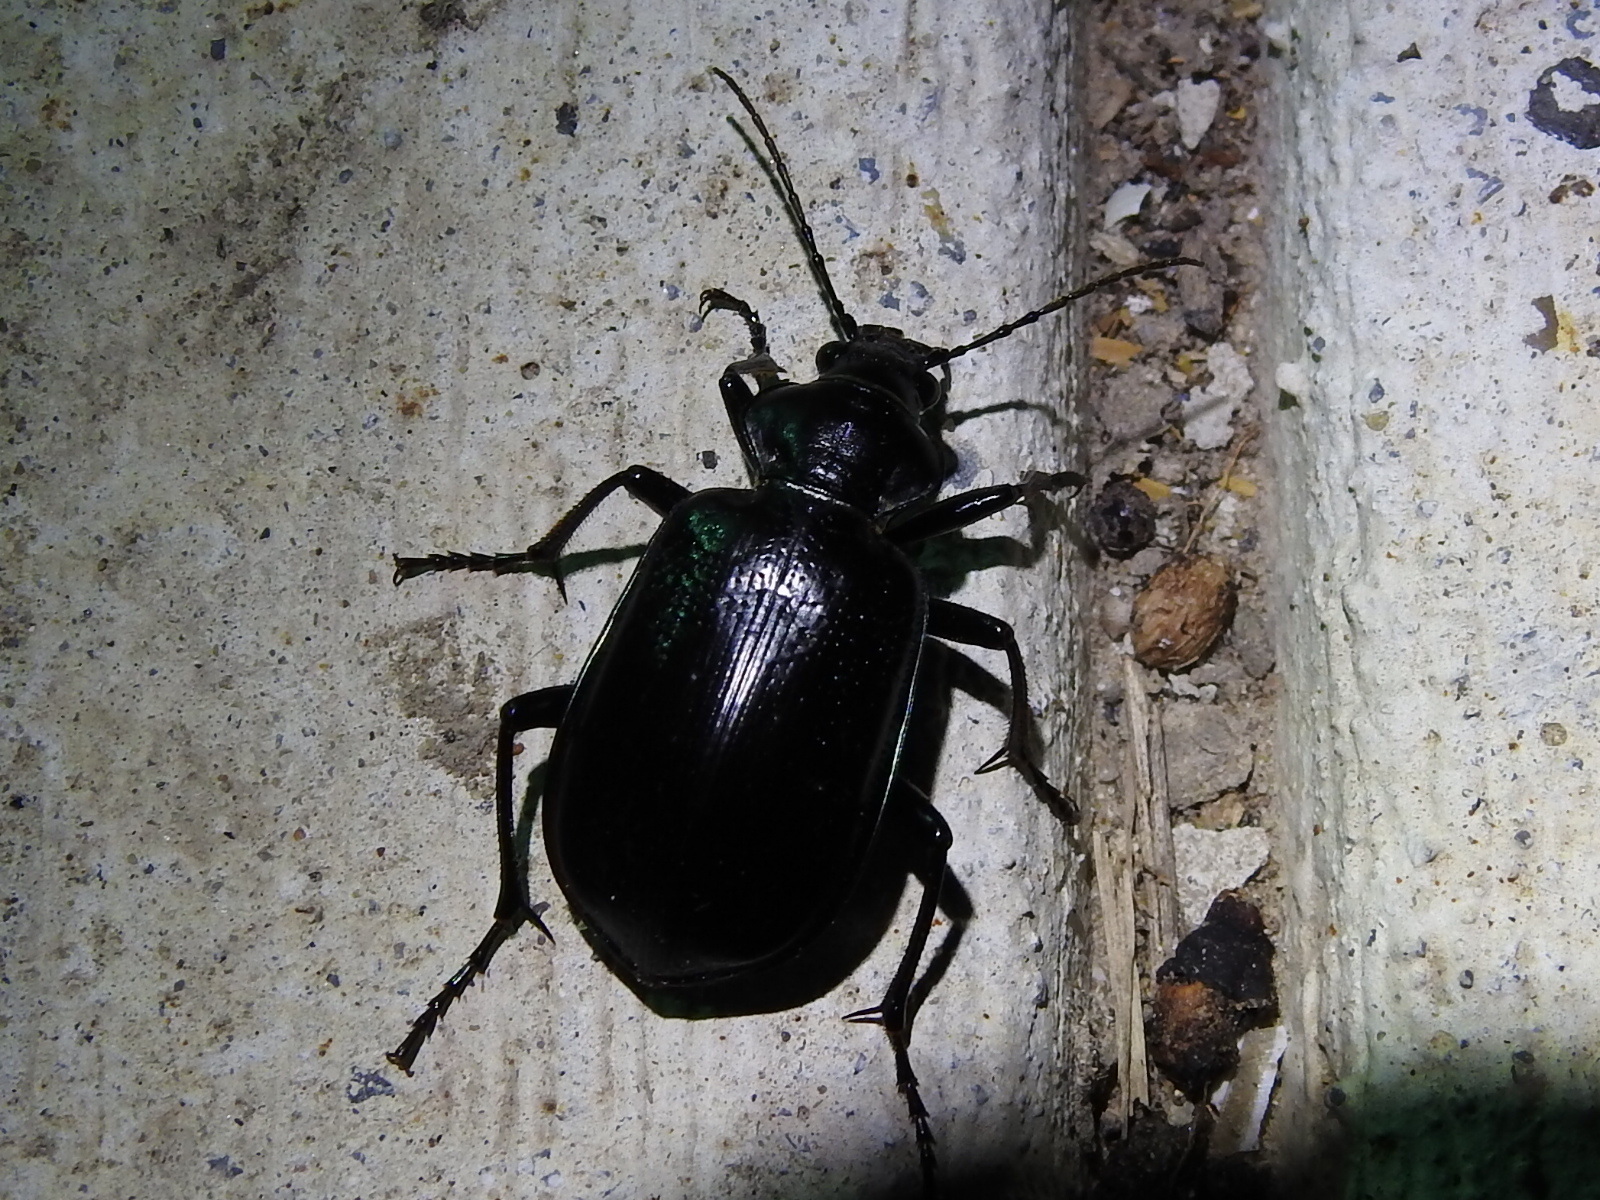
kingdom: Animalia
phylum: Arthropoda
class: Insecta
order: Coleoptera
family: Carabidae
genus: Calosoma
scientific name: Calosoma marginale
